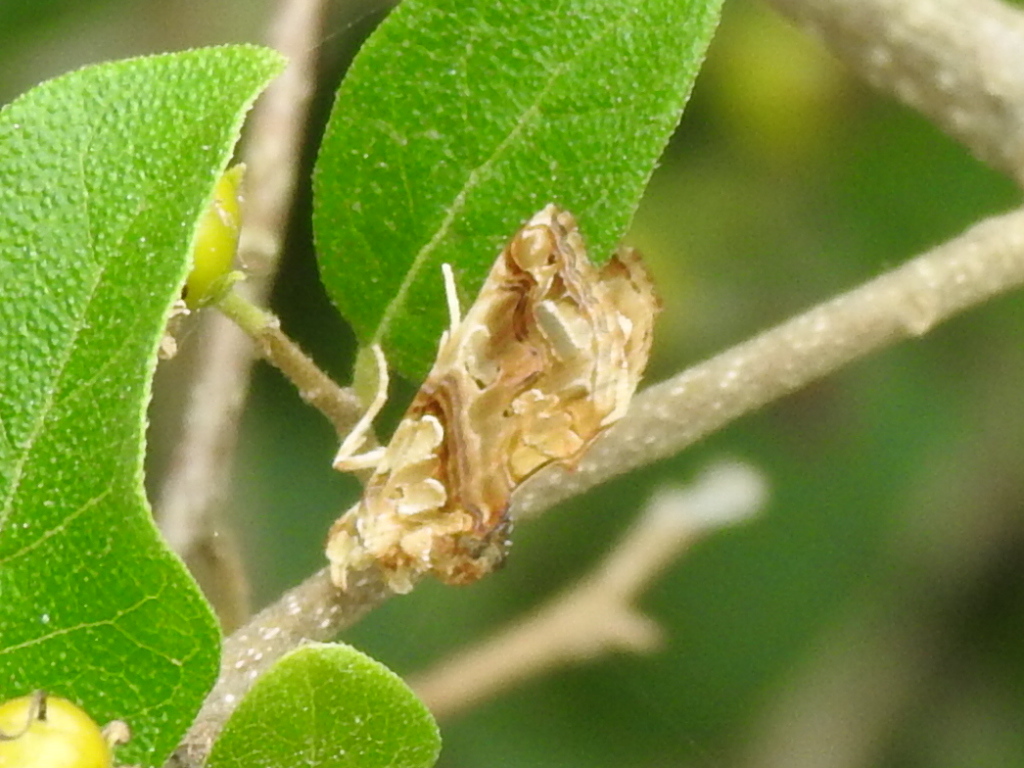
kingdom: Animalia
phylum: Arthropoda
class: Insecta
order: Lepidoptera
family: Erebidae
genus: Plusiodonta
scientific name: Plusiodonta compressipalpis
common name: Moonseed moth
